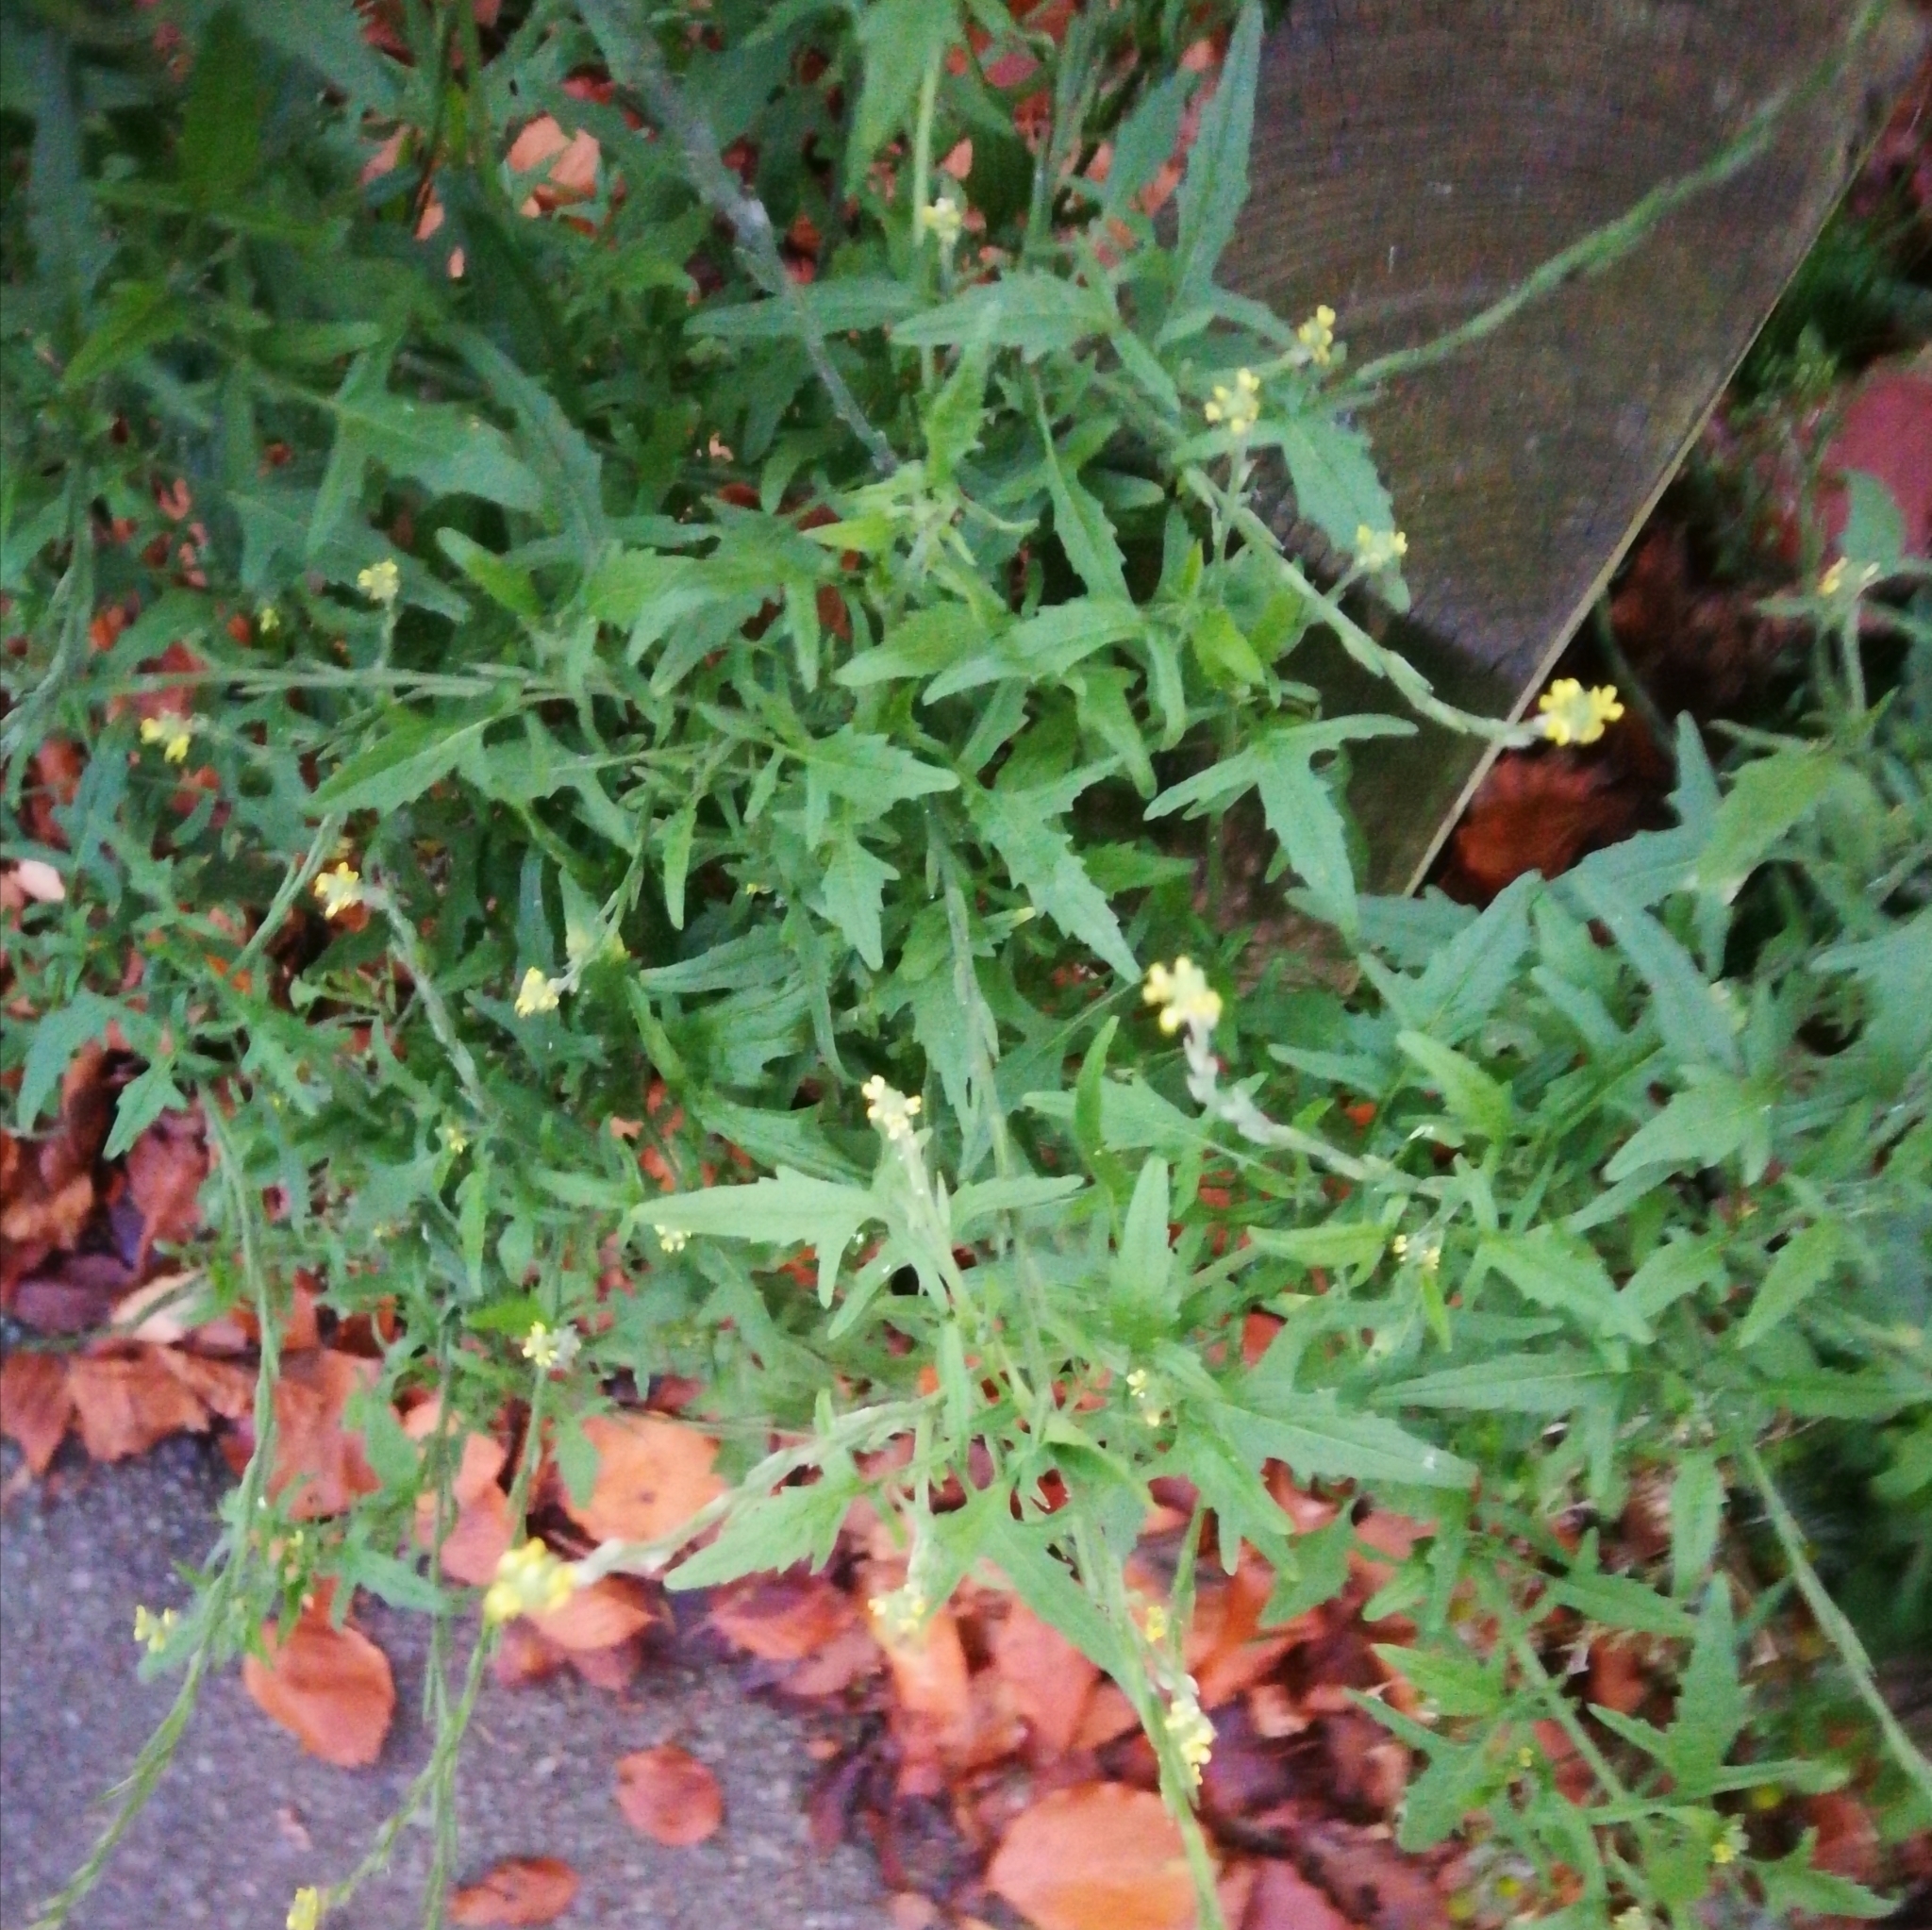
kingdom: Plantae
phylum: Tracheophyta
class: Magnoliopsida
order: Brassicales
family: Brassicaceae
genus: Sisymbrium
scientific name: Sisymbrium officinale
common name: Hedge mustard
